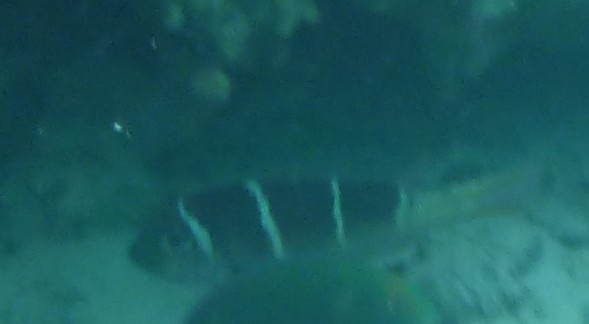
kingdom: Animalia
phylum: Chordata
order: Perciformes
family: Lethrinidae
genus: Monotaxis
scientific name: Monotaxis heterodon
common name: Redfin emperor
